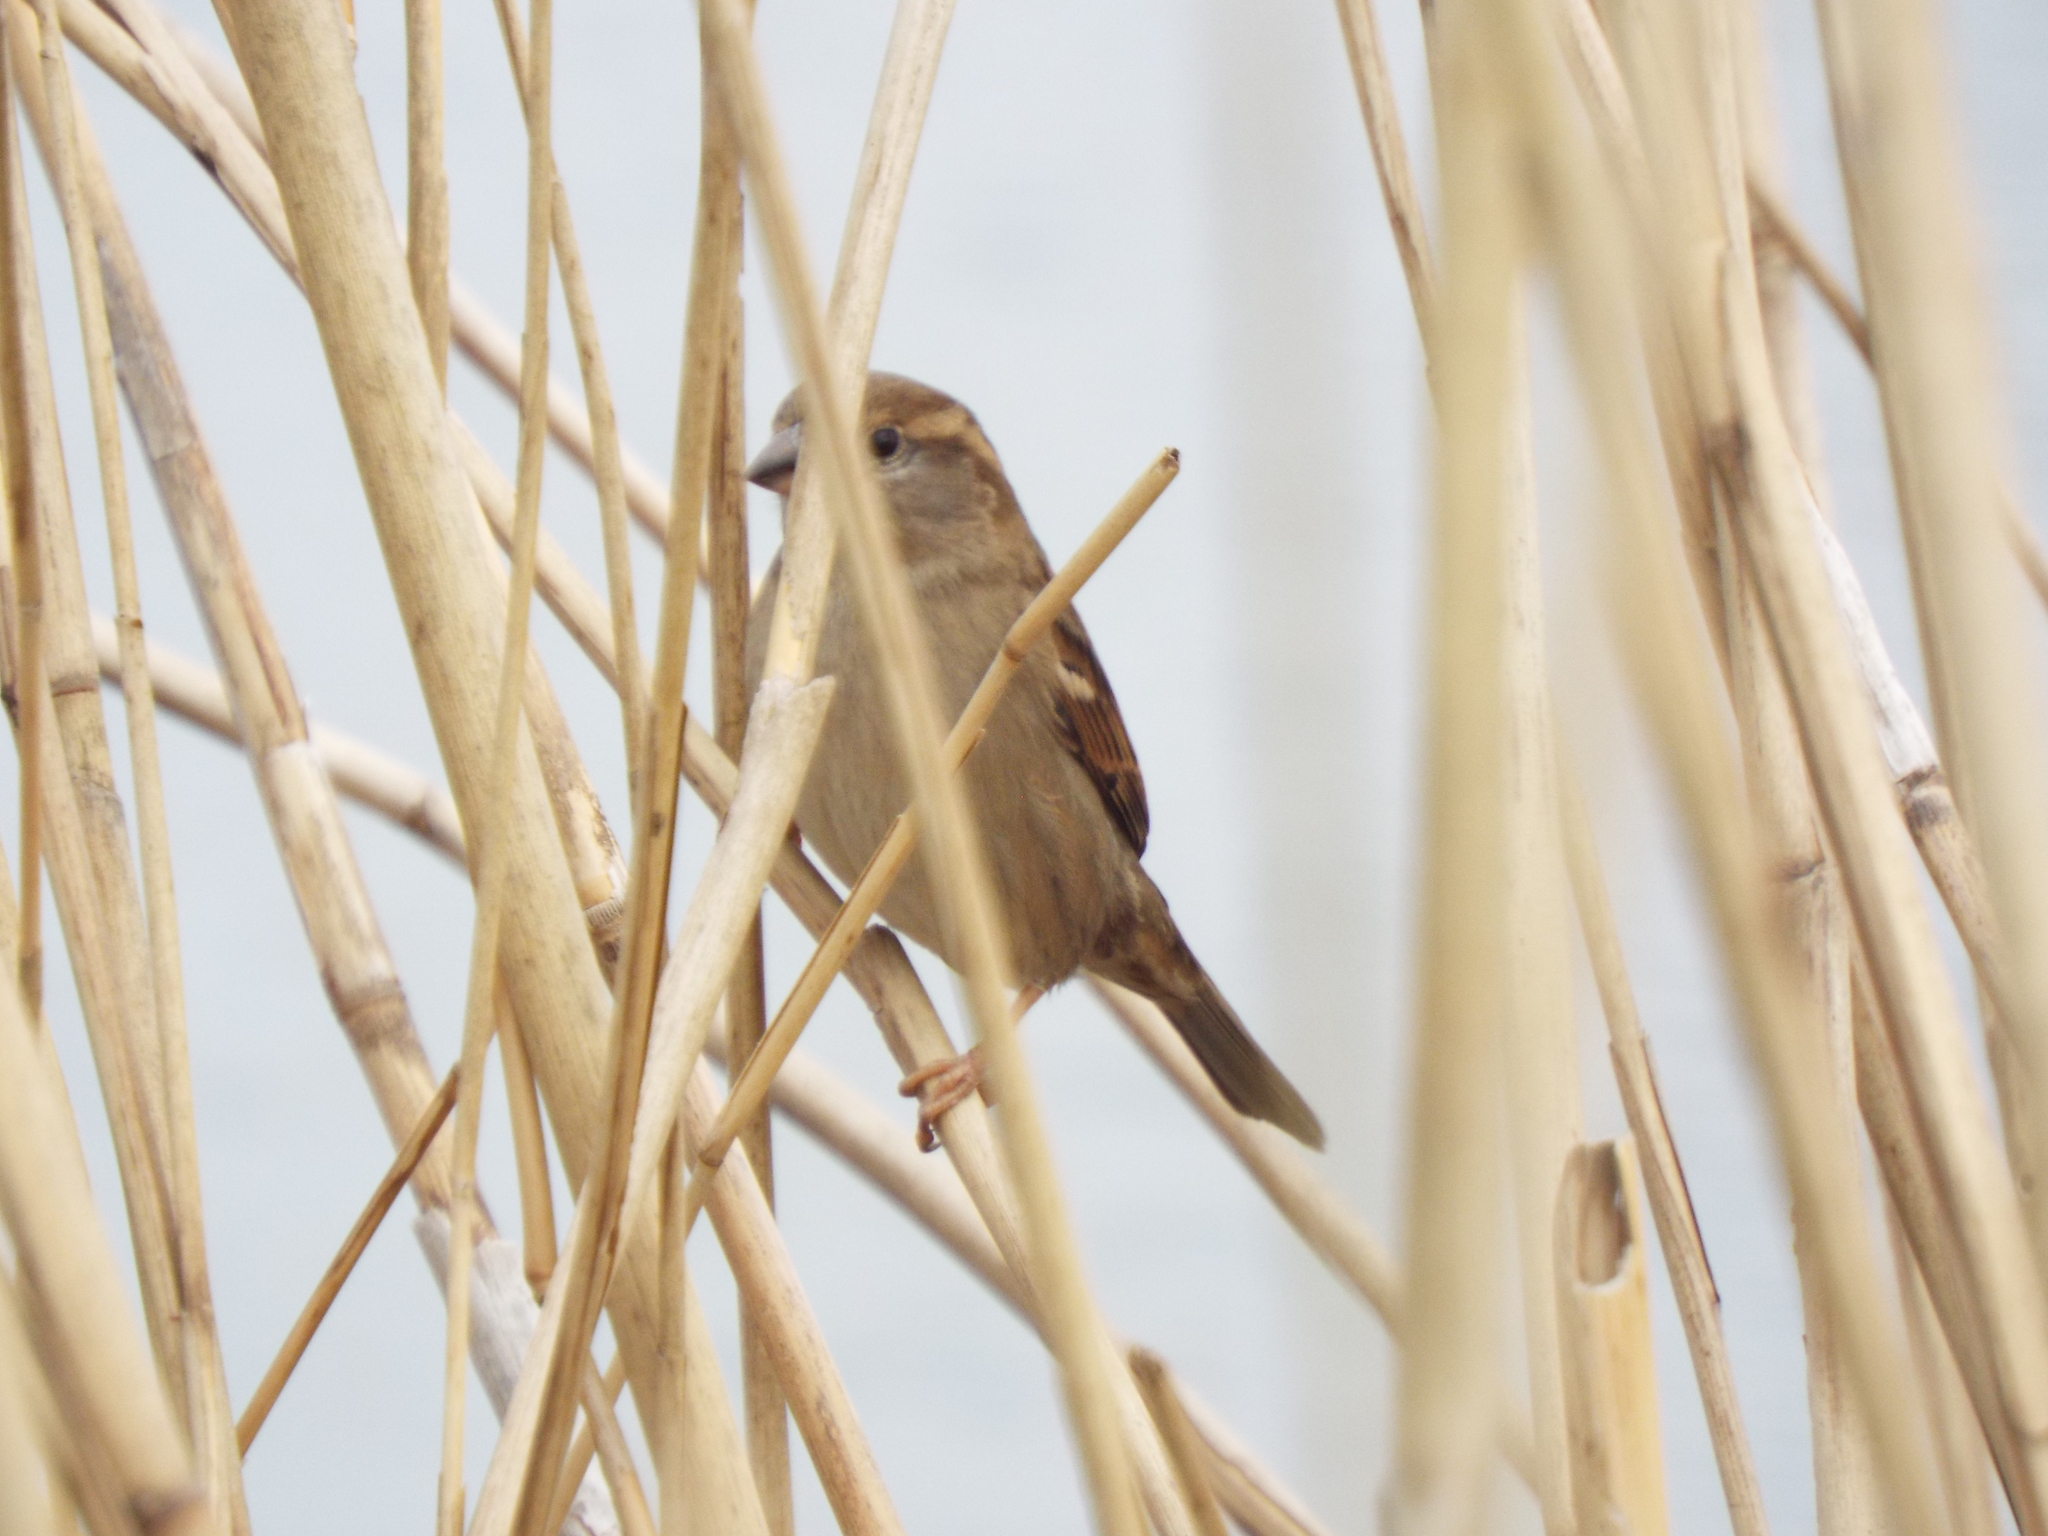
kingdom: Animalia
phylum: Chordata
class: Aves
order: Passeriformes
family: Passeridae
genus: Passer
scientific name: Passer domesticus
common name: House sparrow
